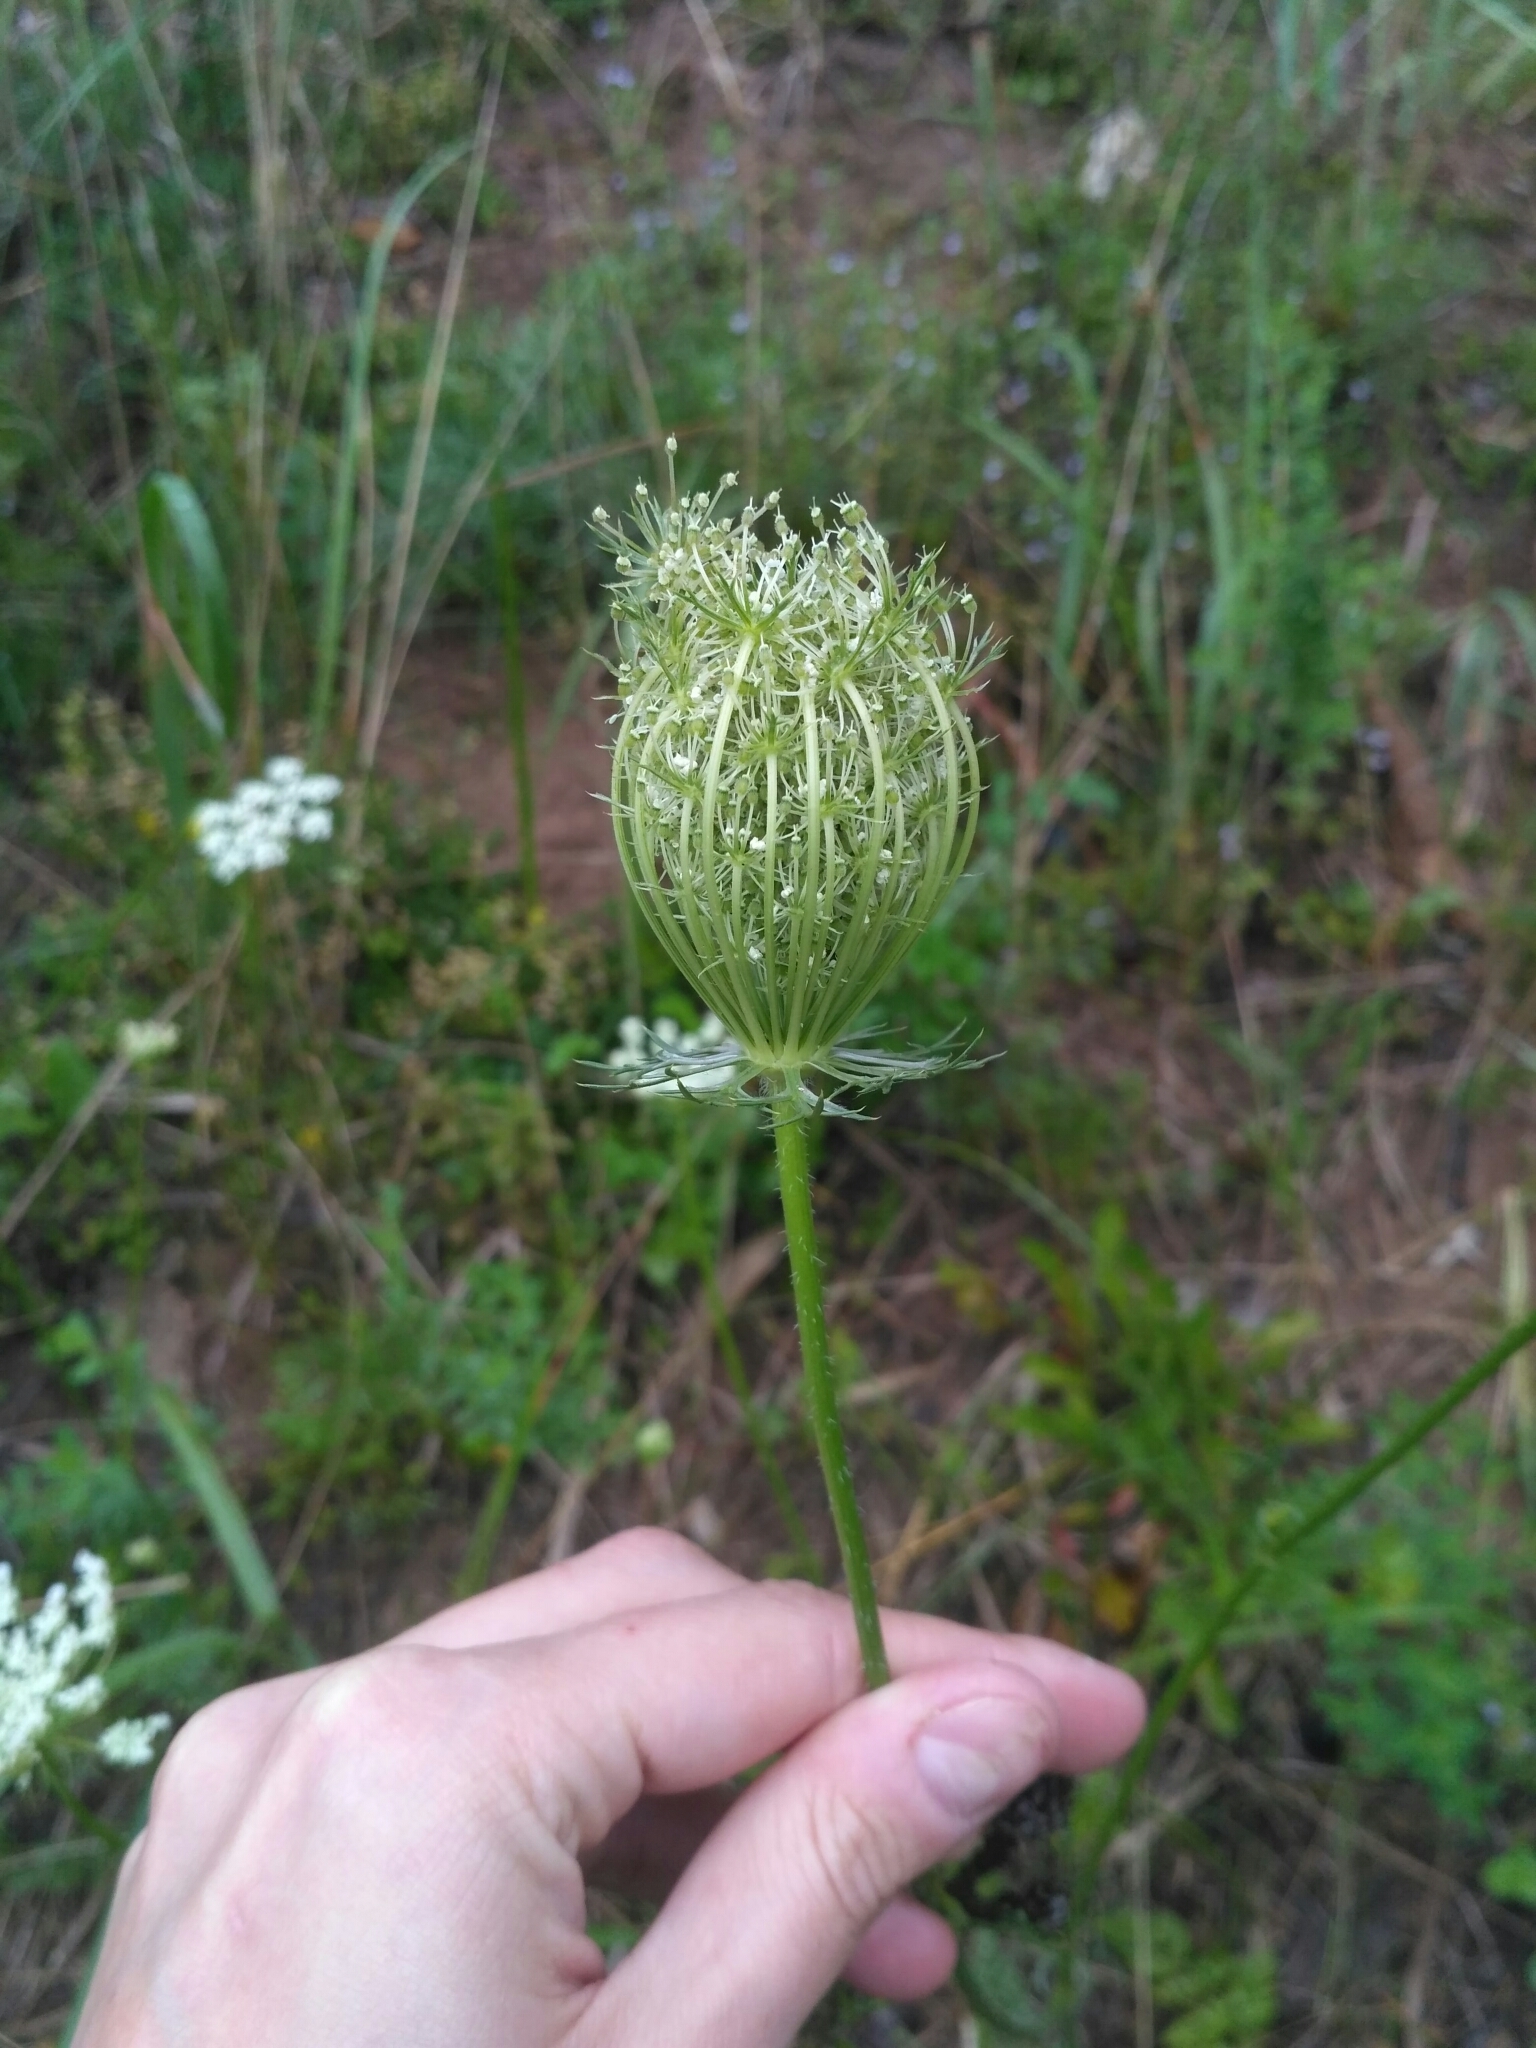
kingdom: Plantae
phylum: Tracheophyta
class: Magnoliopsida
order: Apiales
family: Apiaceae
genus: Daucus
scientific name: Daucus carota
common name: Wild carrot
